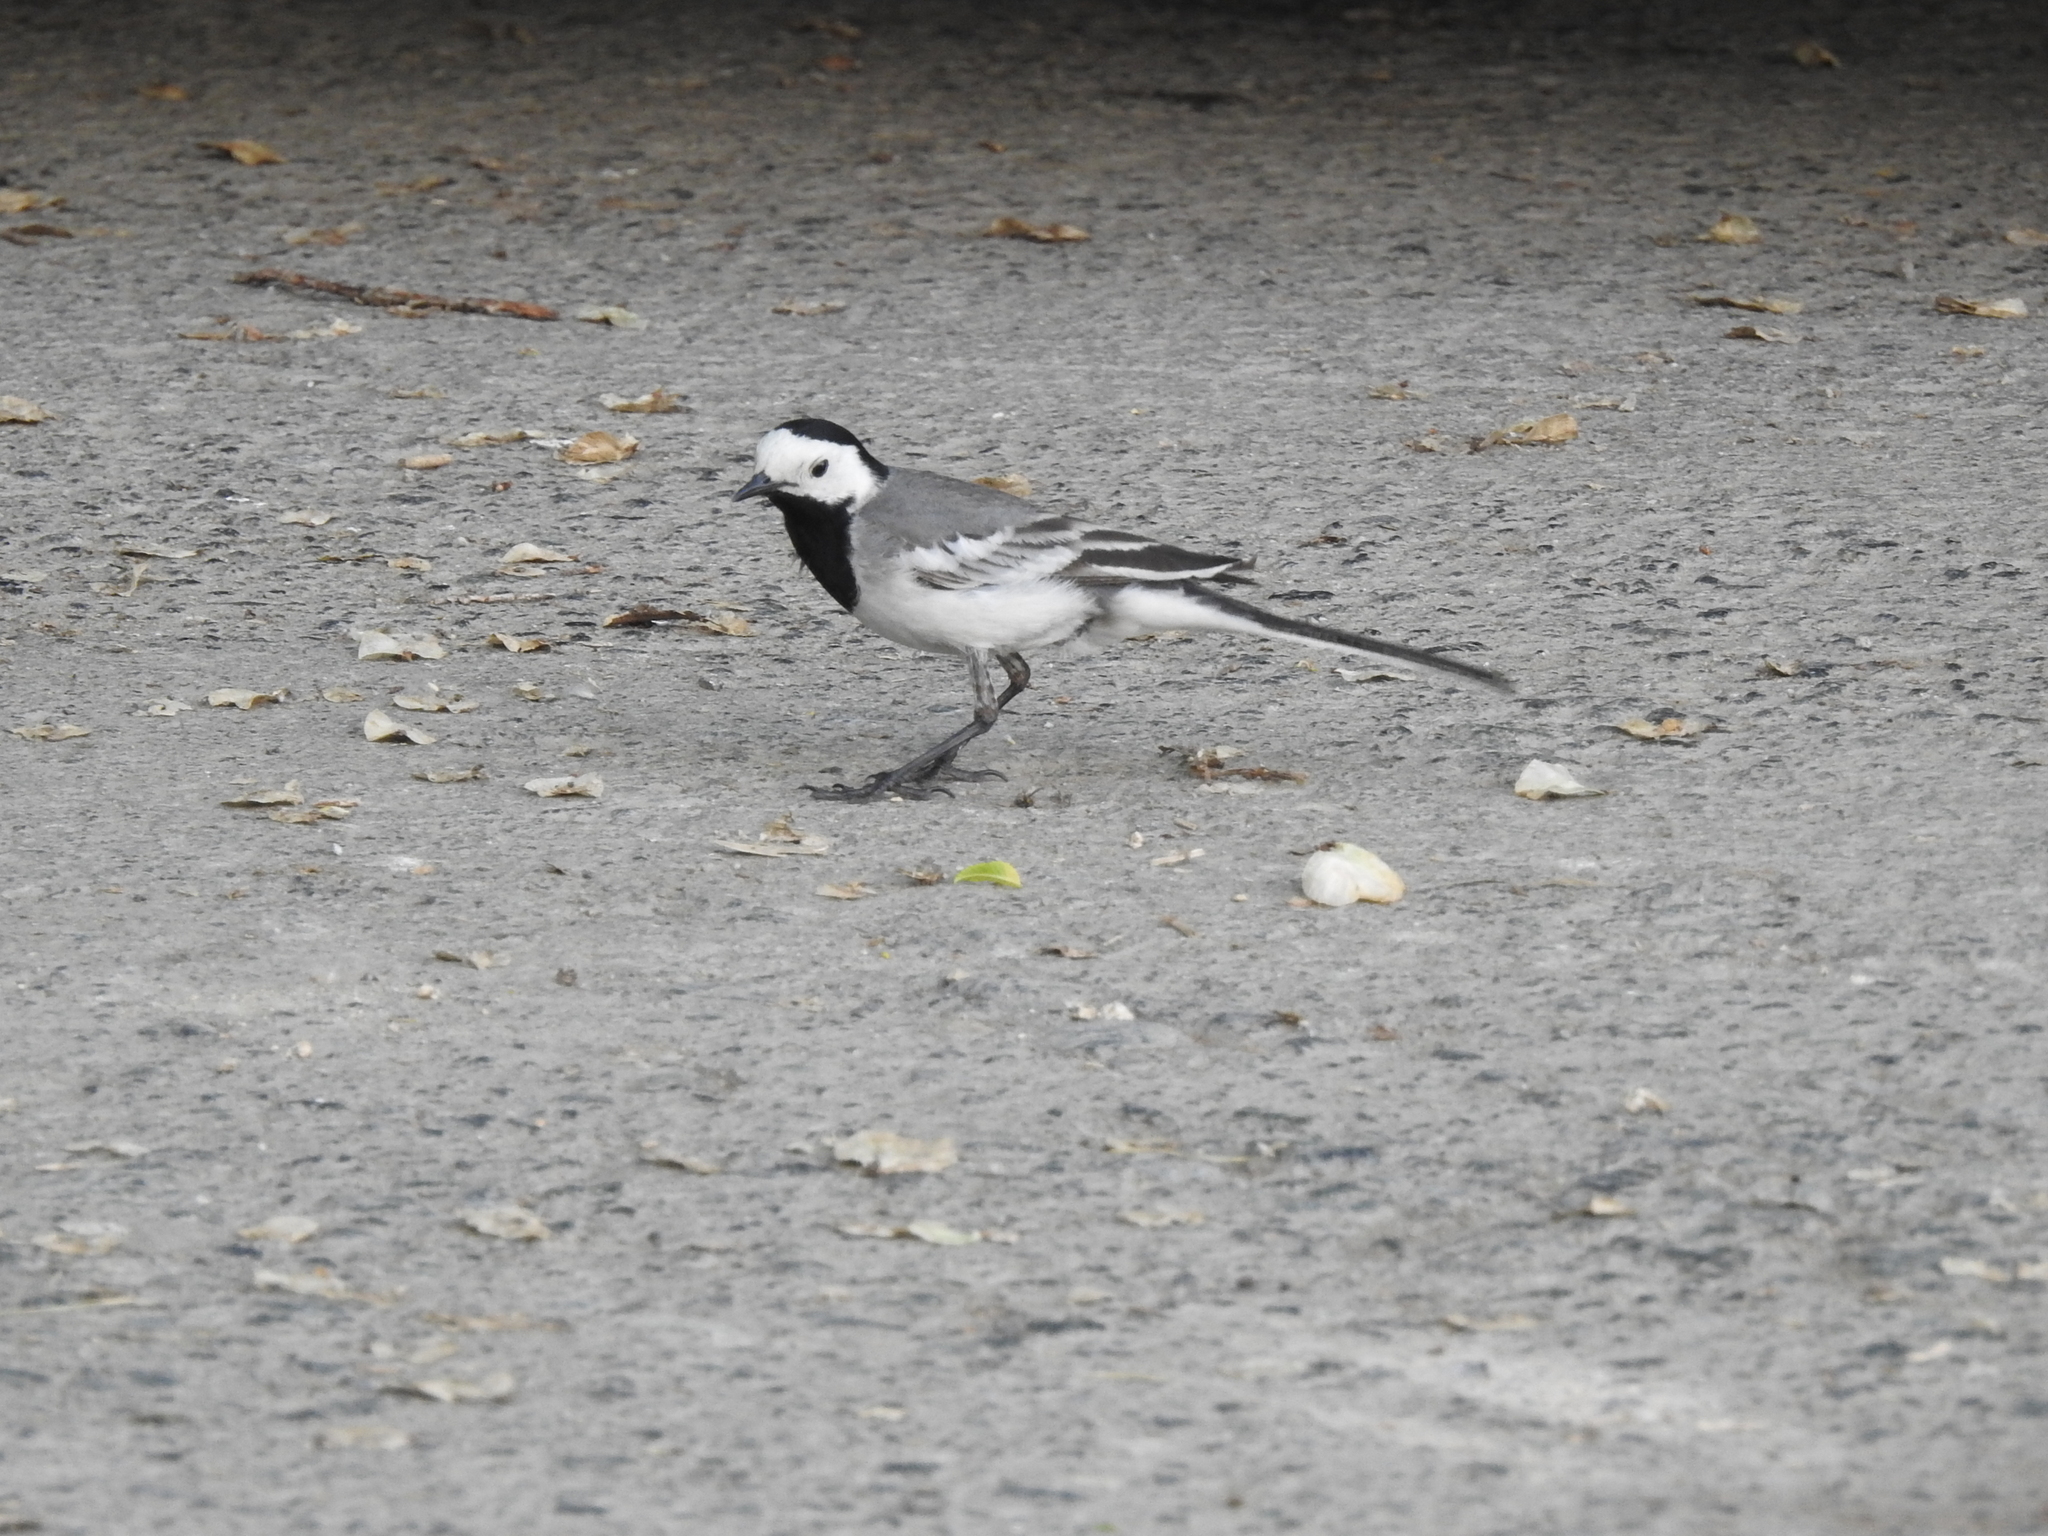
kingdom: Animalia
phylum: Chordata
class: Aves
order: Passeriformes
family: Motacillidae
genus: Motacilla
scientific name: Motacilla alba
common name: White wagtail
